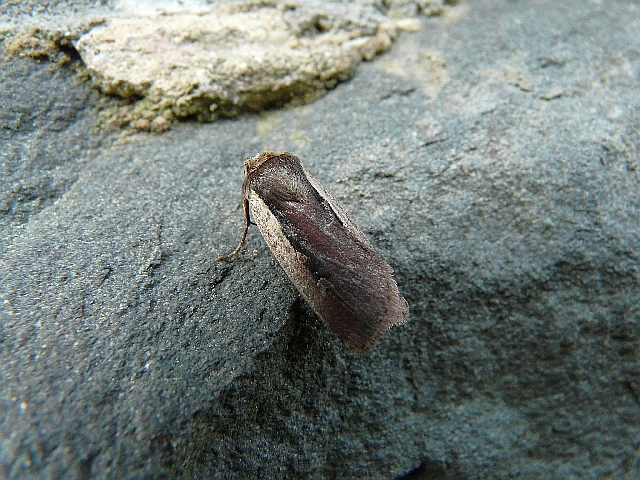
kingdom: Animalia
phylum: Arthropoda
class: Insecta
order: Lepidoptera
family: Noctuidae
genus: Ochropleura
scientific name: Ochropleura plecta
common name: Flame shoulder
